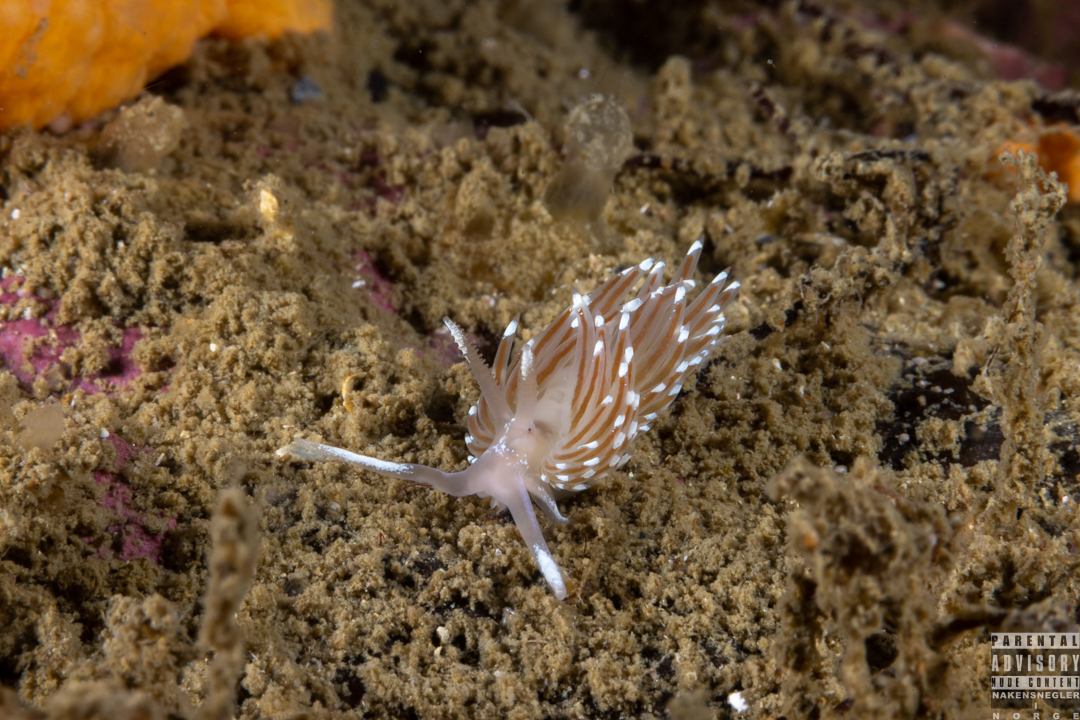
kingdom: Animalia
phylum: Mollusca
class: Gastropoda
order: Nudibranchia
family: Facelinidae
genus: Facelina
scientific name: Facelina bostoniensis
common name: Boston facelina
